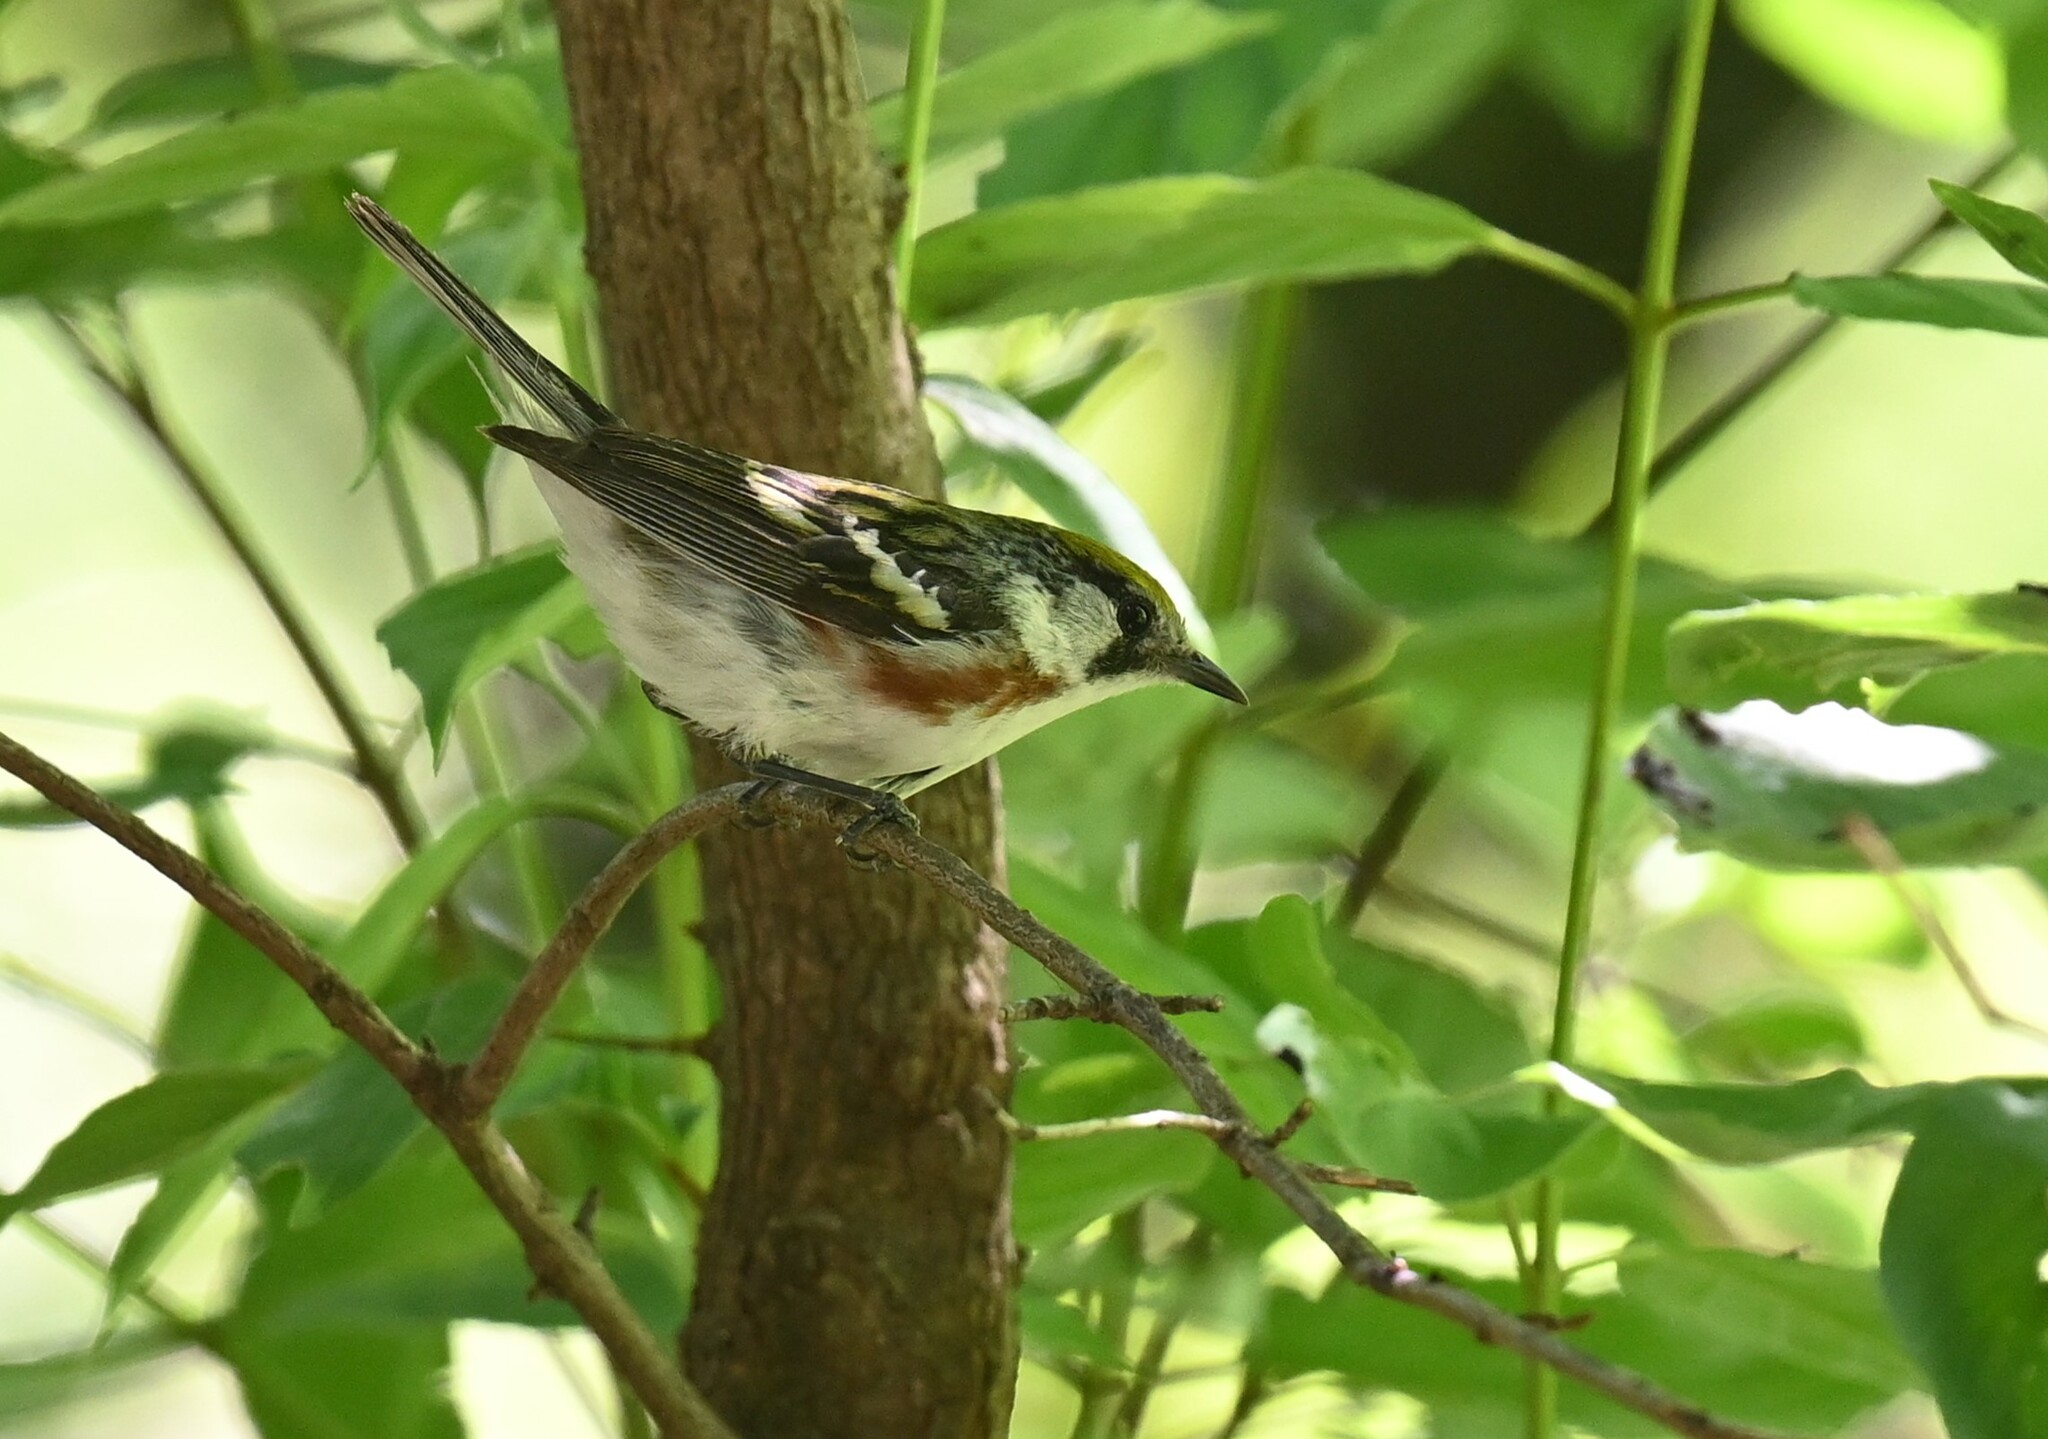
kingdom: Animalia
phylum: Chordata
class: Aves
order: Passeriformes
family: Parulidae
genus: Setophaga
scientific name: Setophaga pensylvanica
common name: Chestnut-sided warbler
